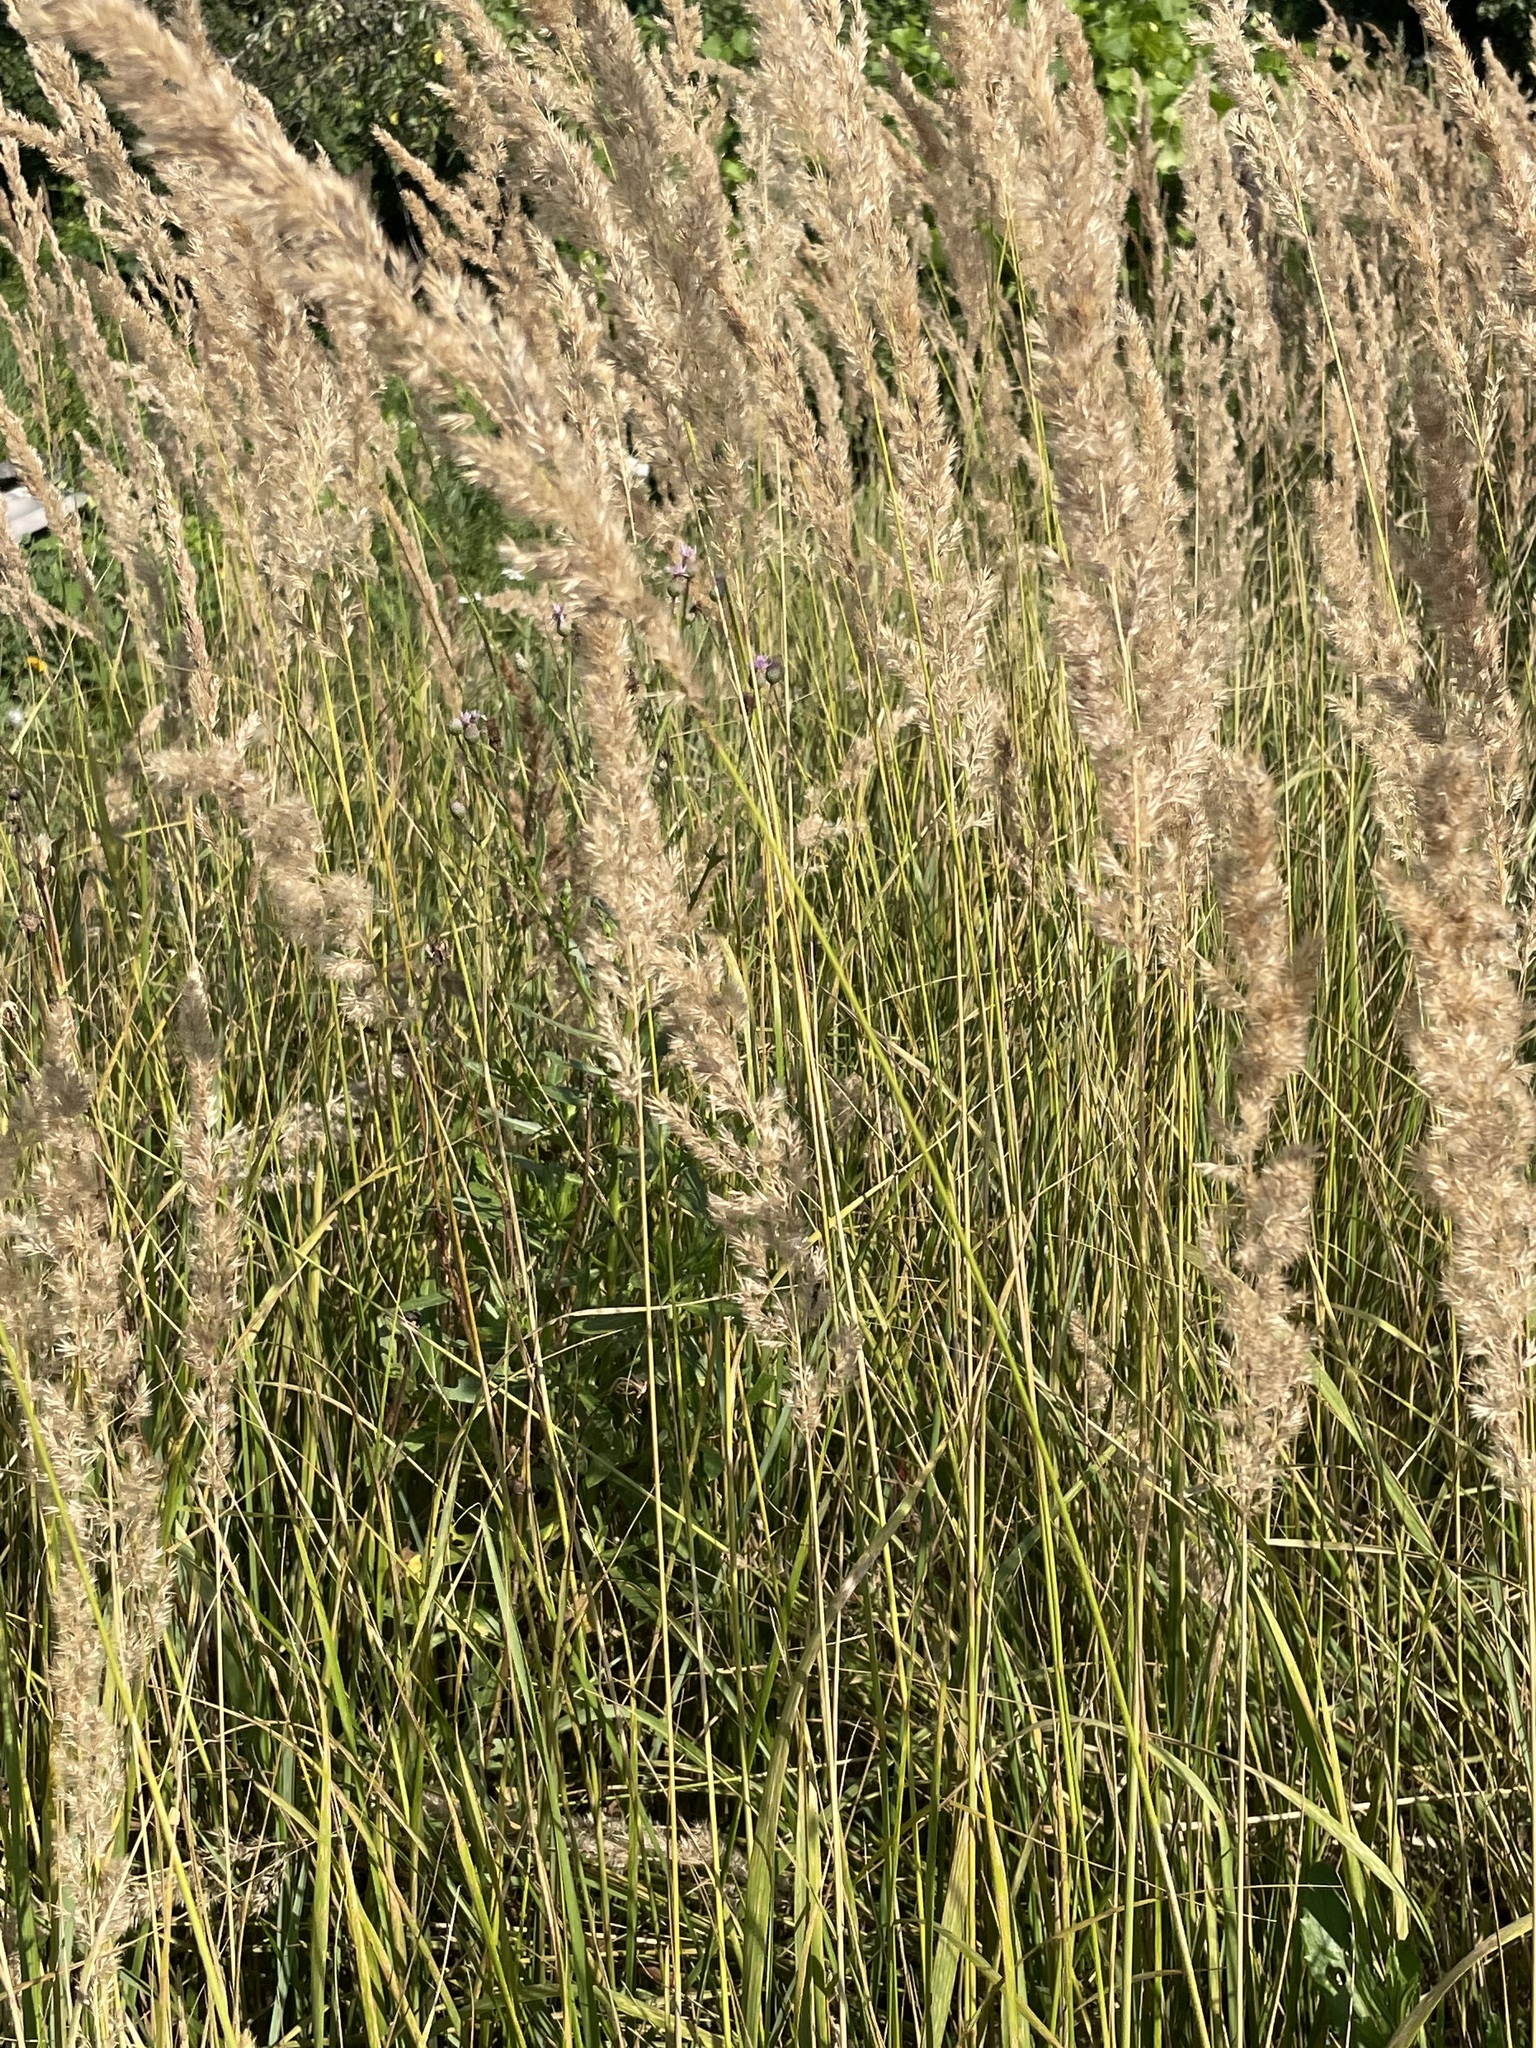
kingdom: Plantae
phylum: Tracheophyta
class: Liliopsida
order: Poales
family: Poaceae
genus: Calamagrostis
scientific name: Calamagrostis epigejos
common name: Wood small-reed
